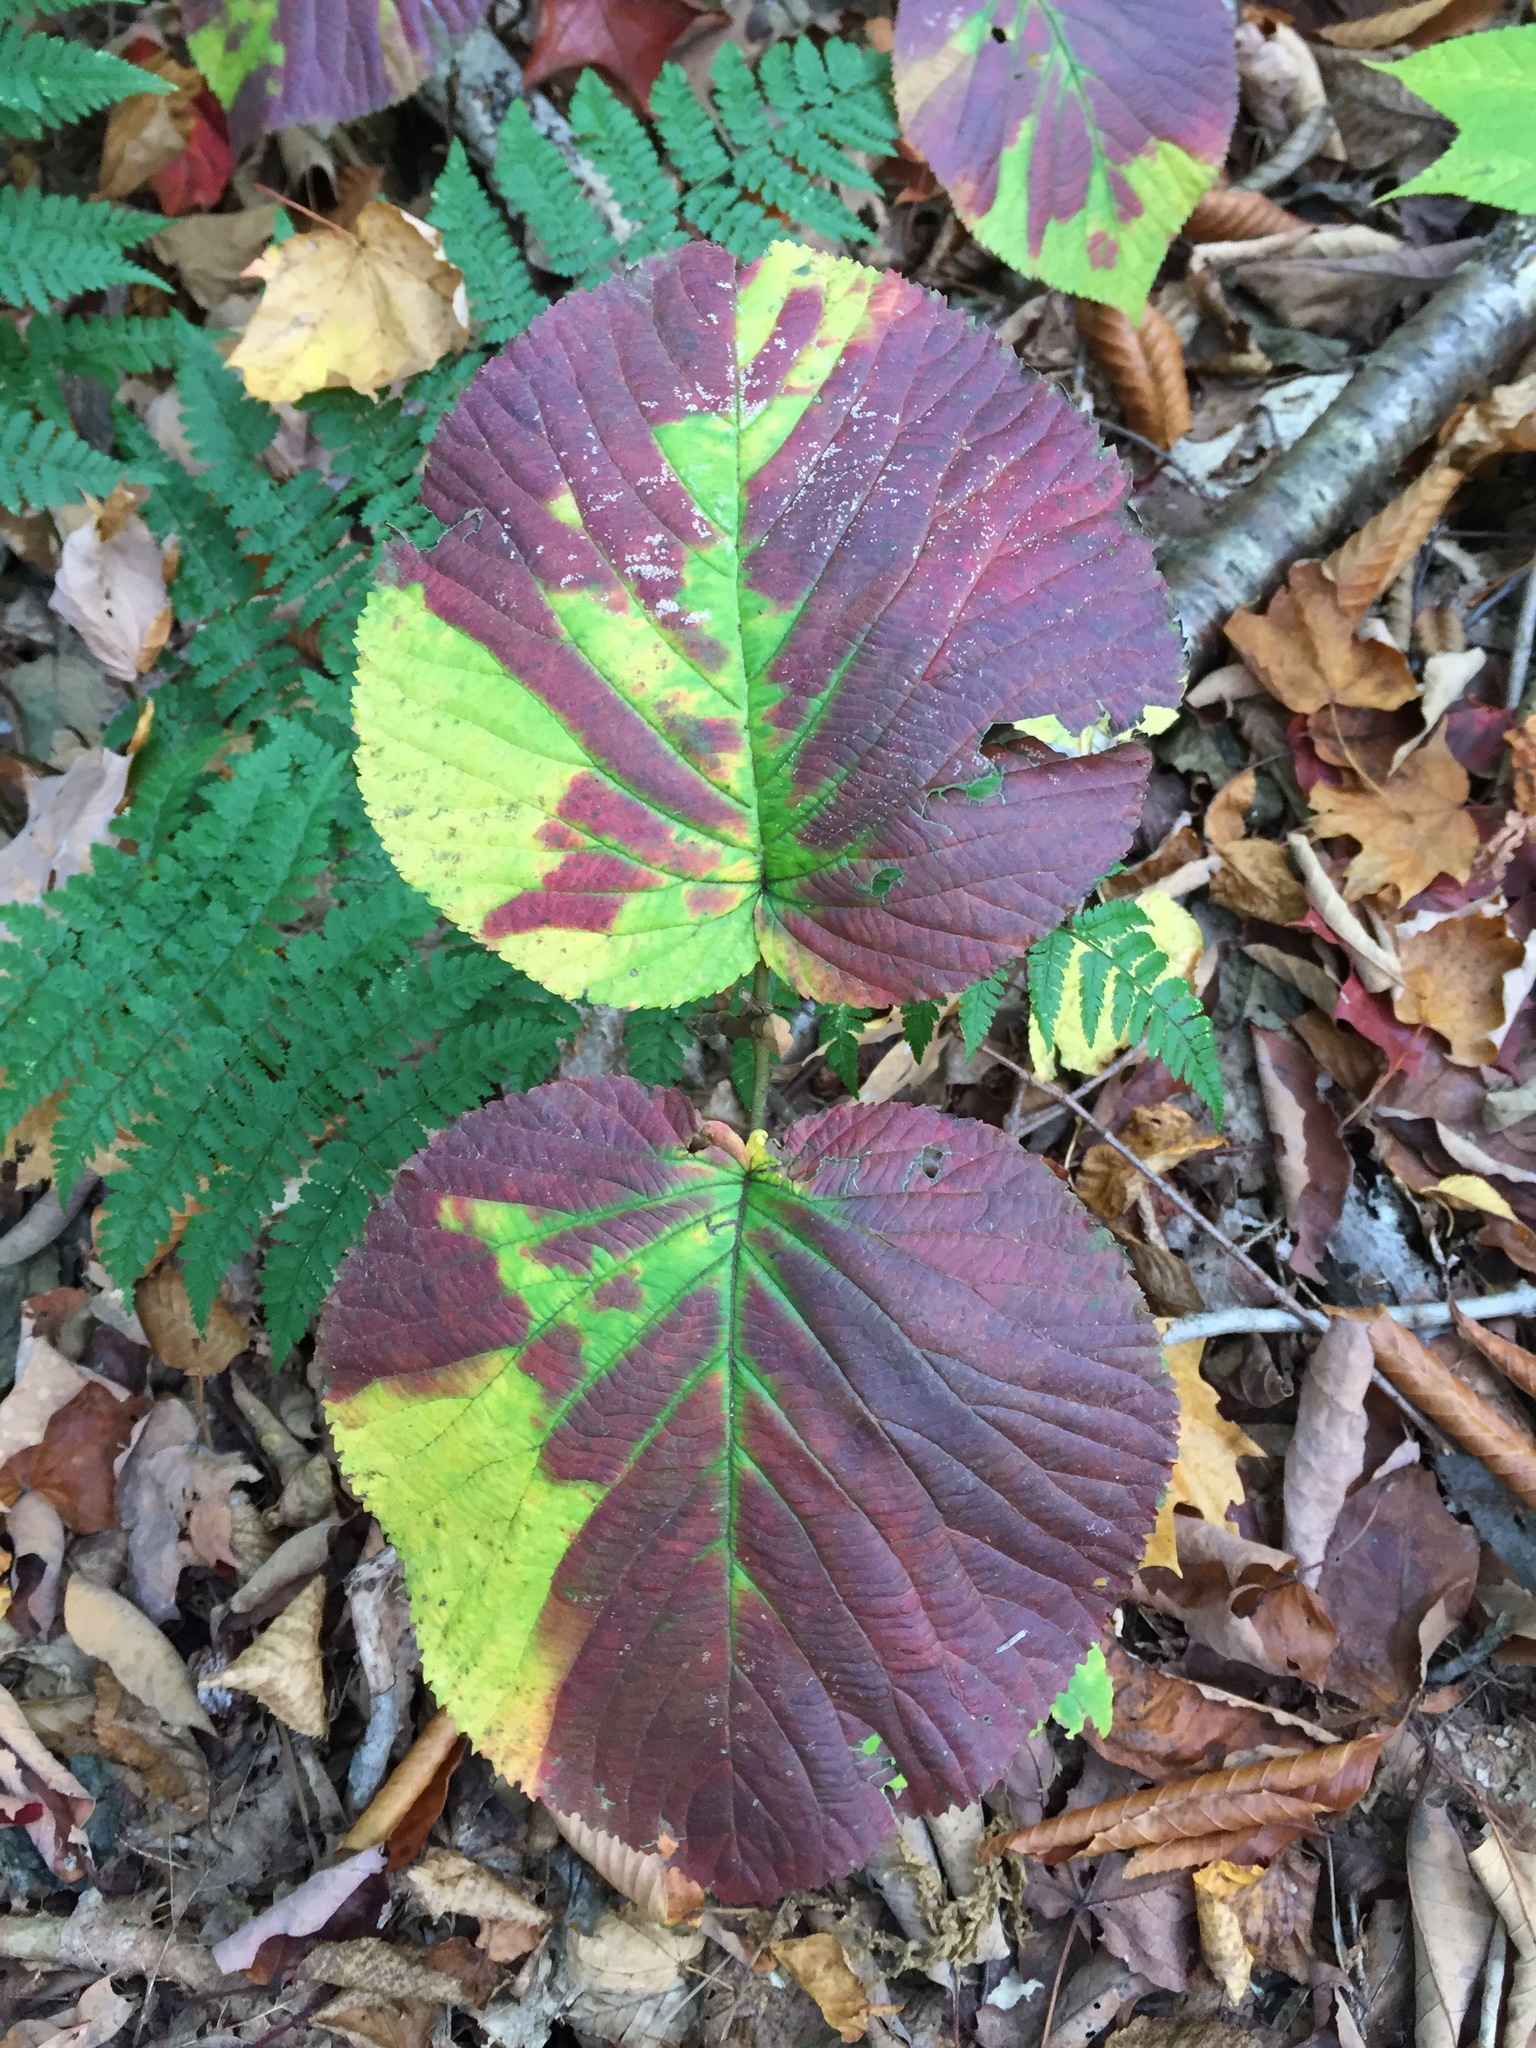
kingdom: Plantae
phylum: Tracheophyta
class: Magnoliopsida
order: Dipsacales
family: Viburnaceae
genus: Viburnum
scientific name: Viburnum lantanoides
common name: Hobblebush
